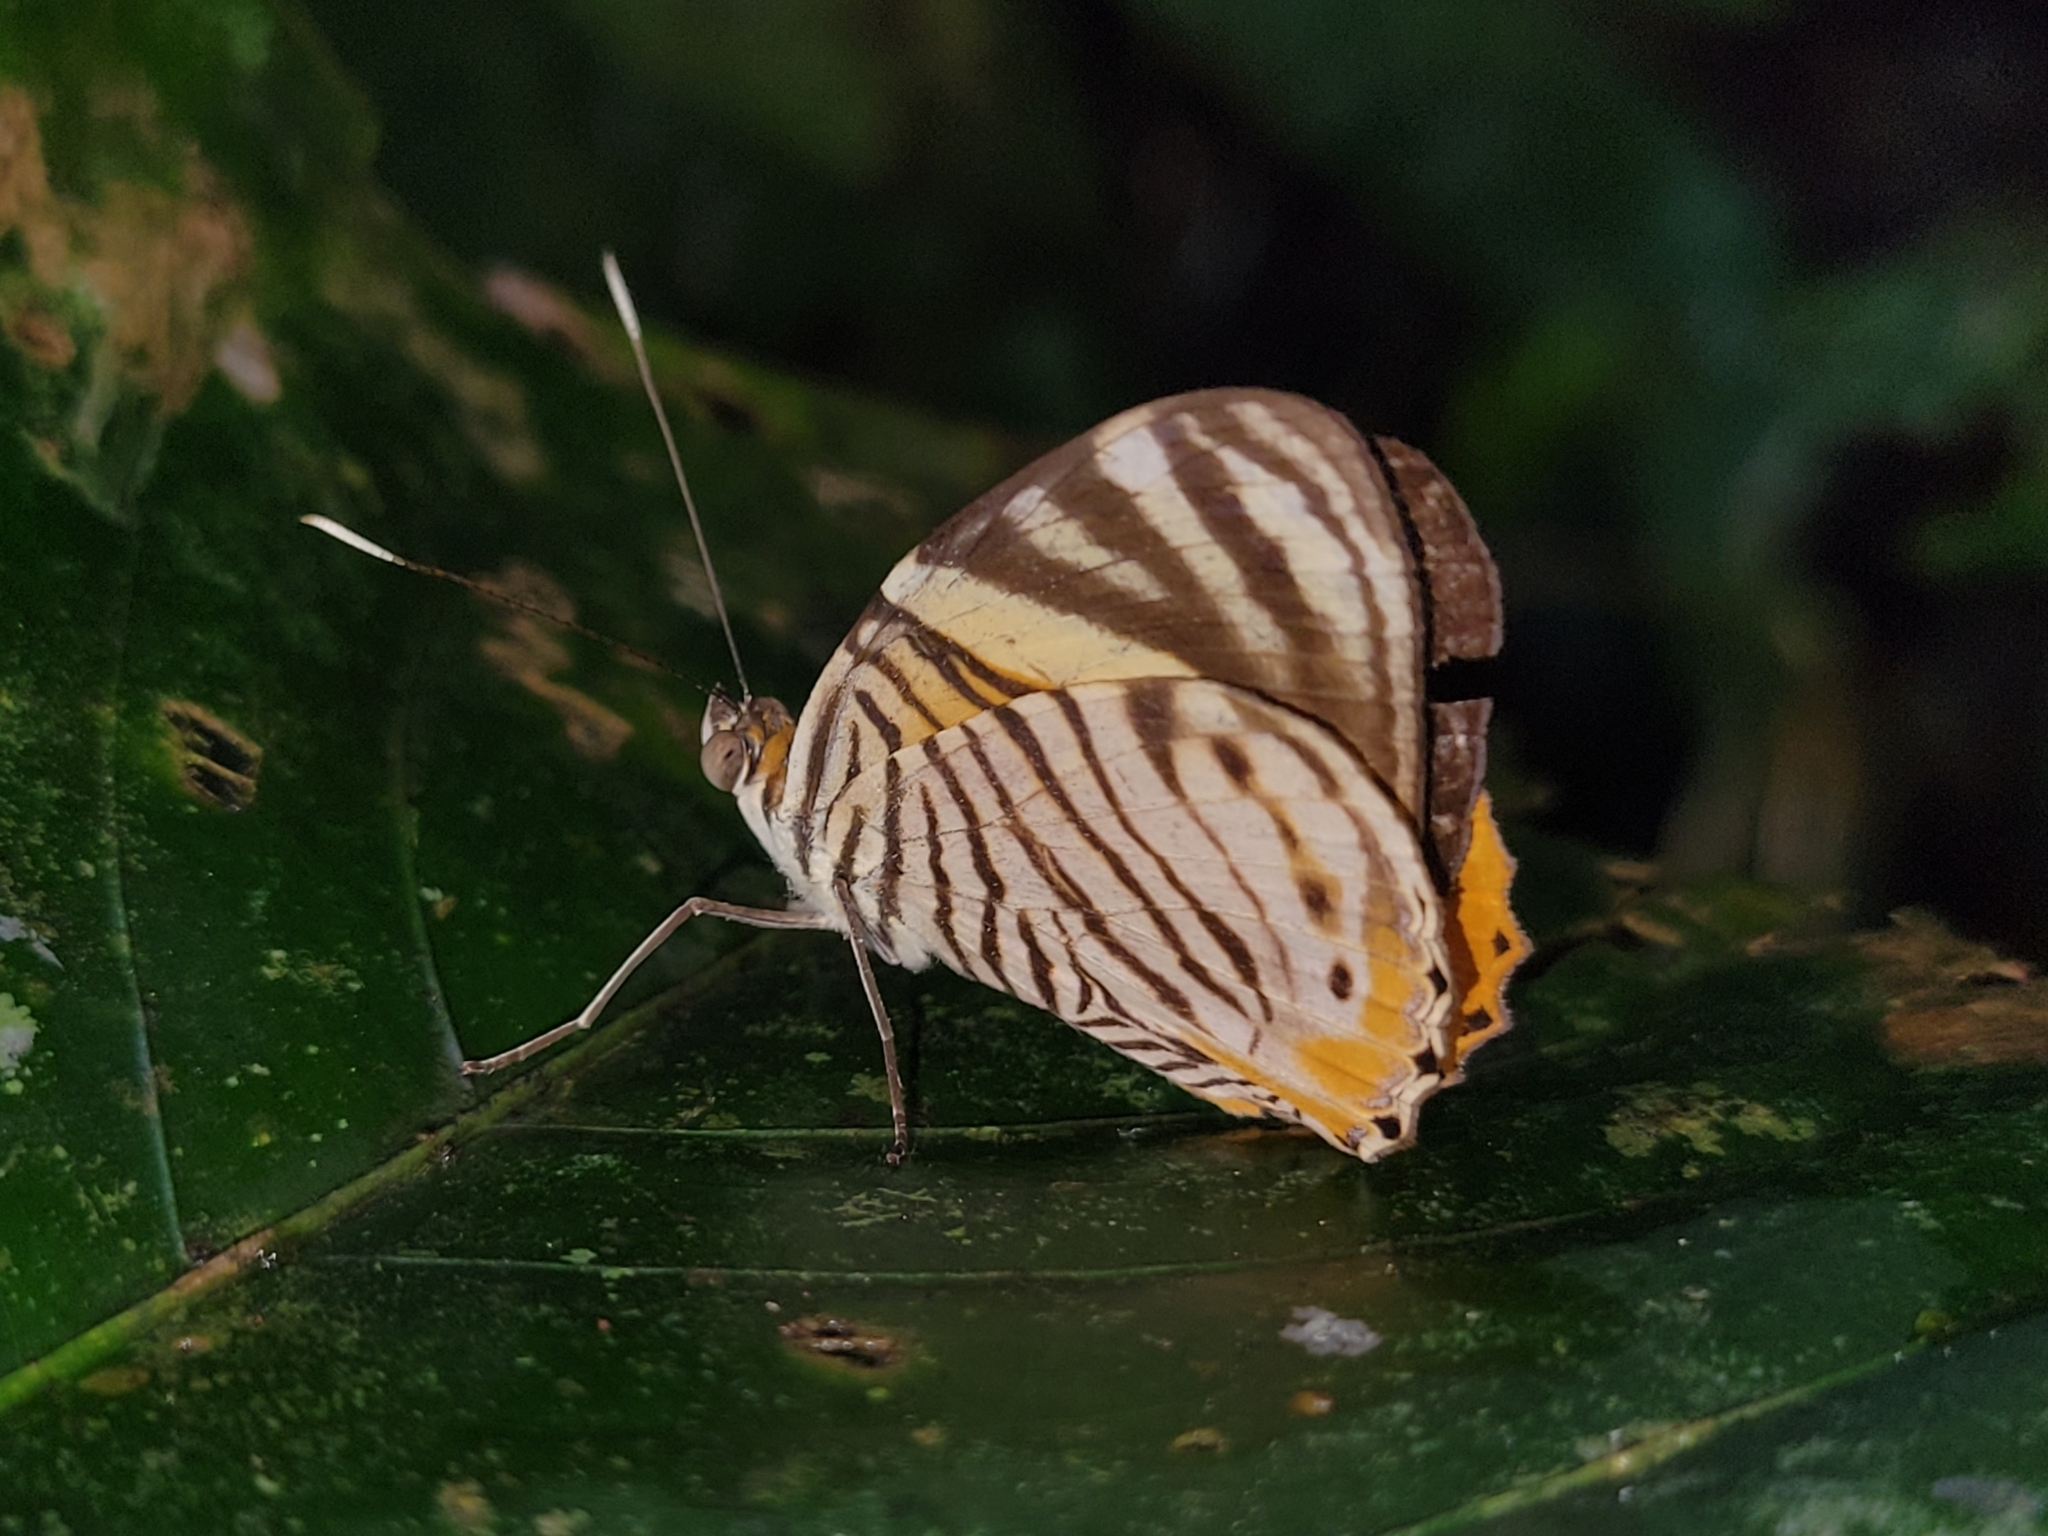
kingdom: Animalia
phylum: Arthropoda
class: Insecta
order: Lepidoptera
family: Nymphalidae
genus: Callizona
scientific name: Callizona acesta
